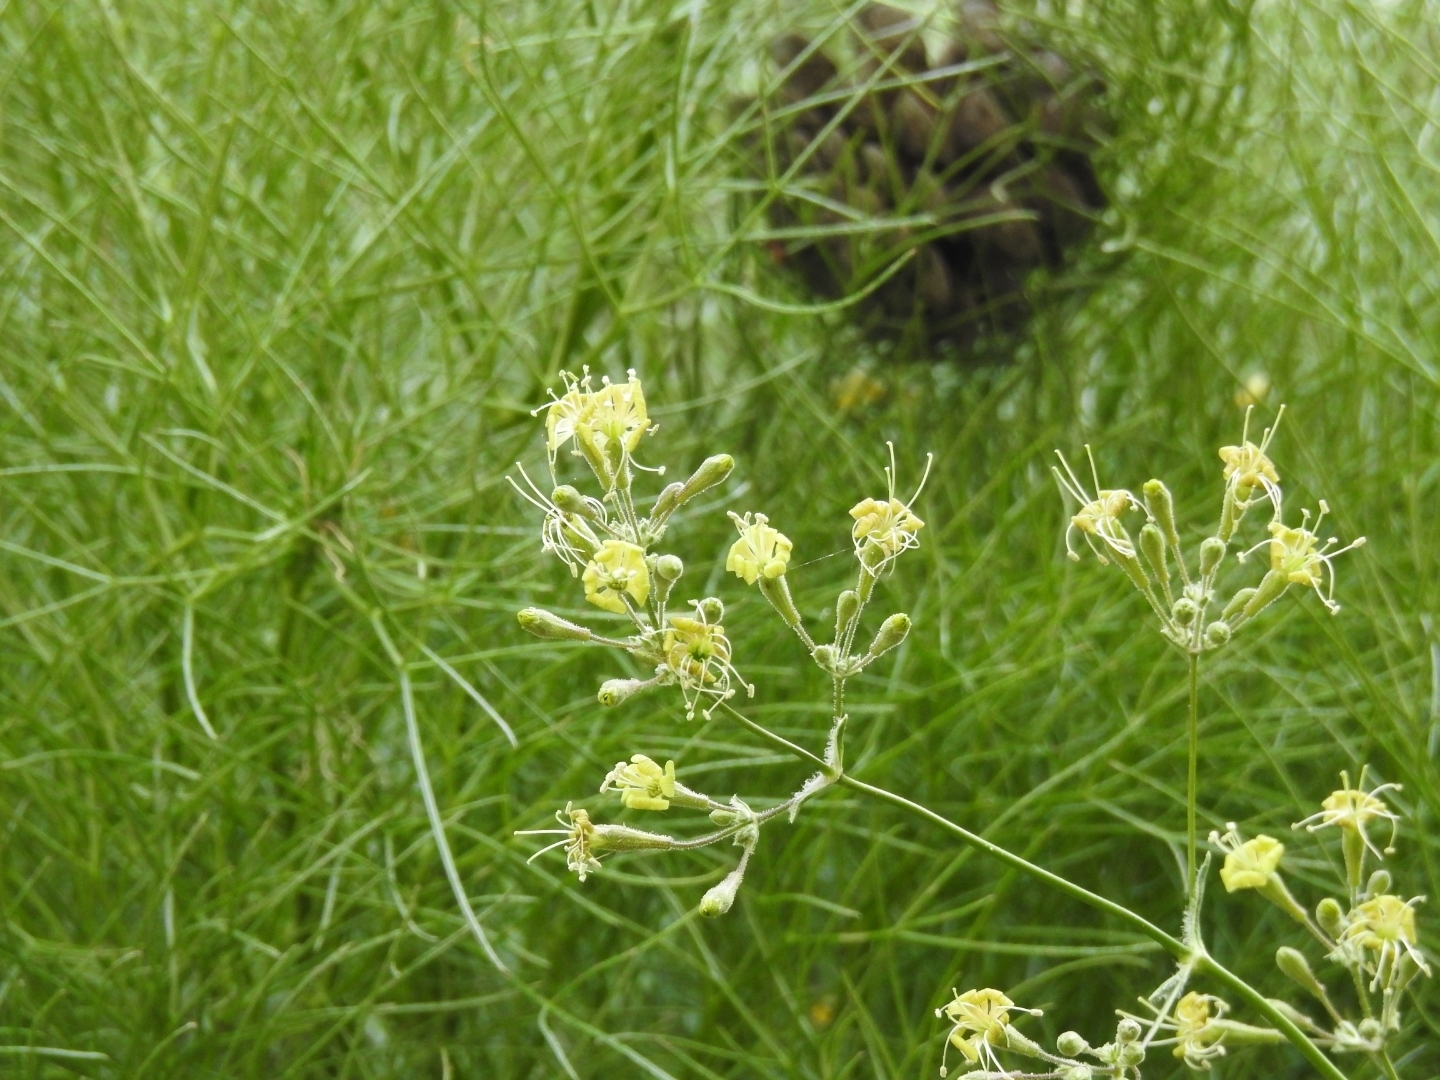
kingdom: Plantae
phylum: Tracheophyta
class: Magnoliopsida
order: Caryophyllales
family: Caryophyllaceae
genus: Silene
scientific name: Silene gigantea
